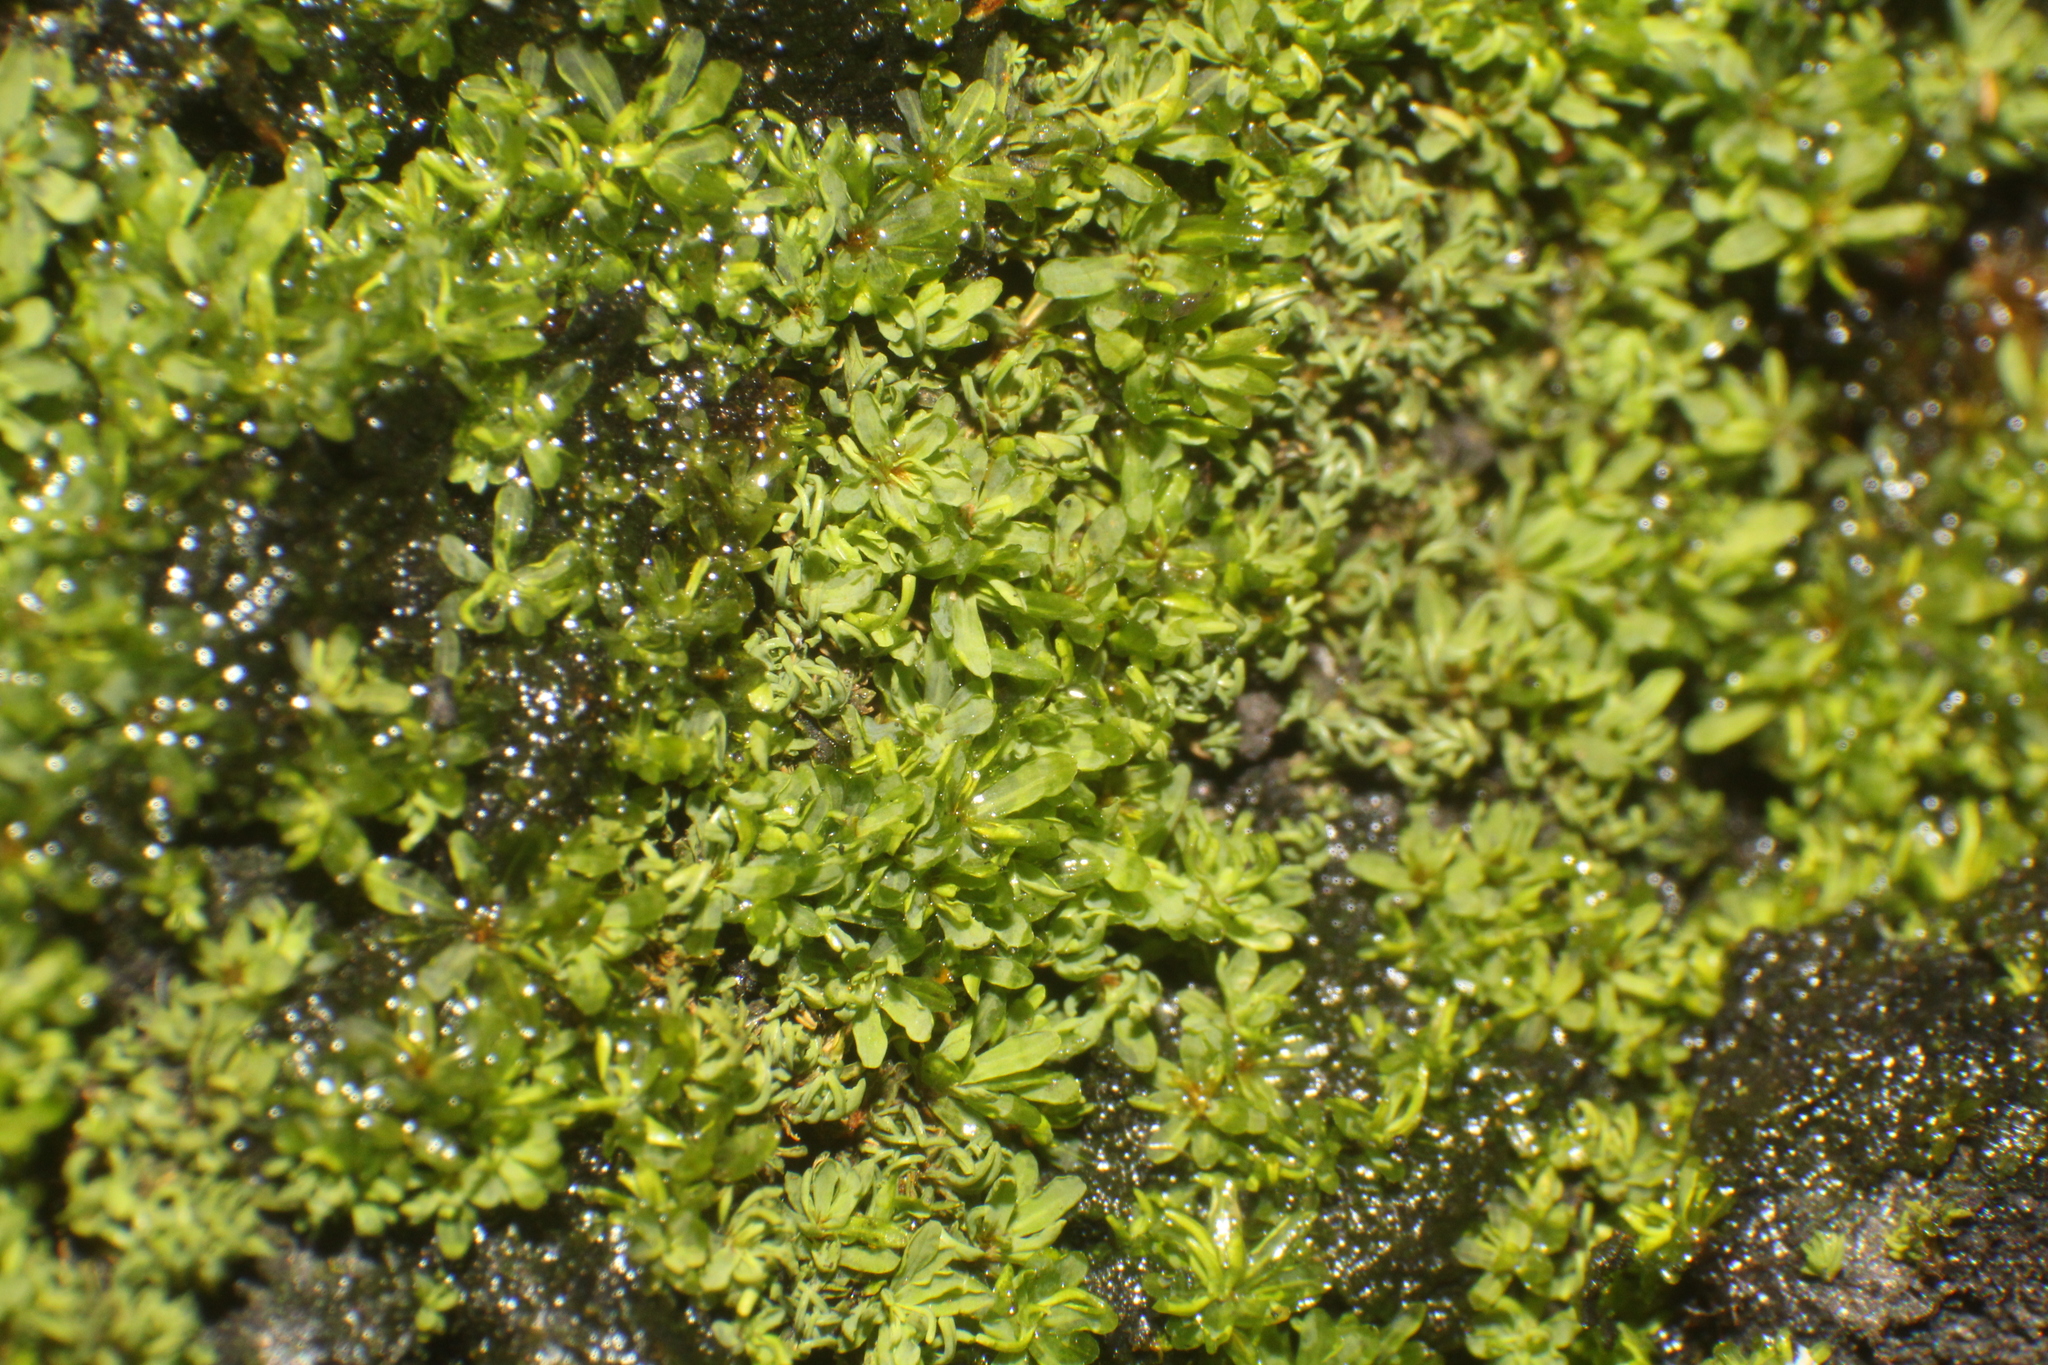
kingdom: Plantae
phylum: Bryophyta
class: Bryopsida
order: Pottiales
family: Pottiaceae
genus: Calymperastrum
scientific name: Calymperastrum latifolium
